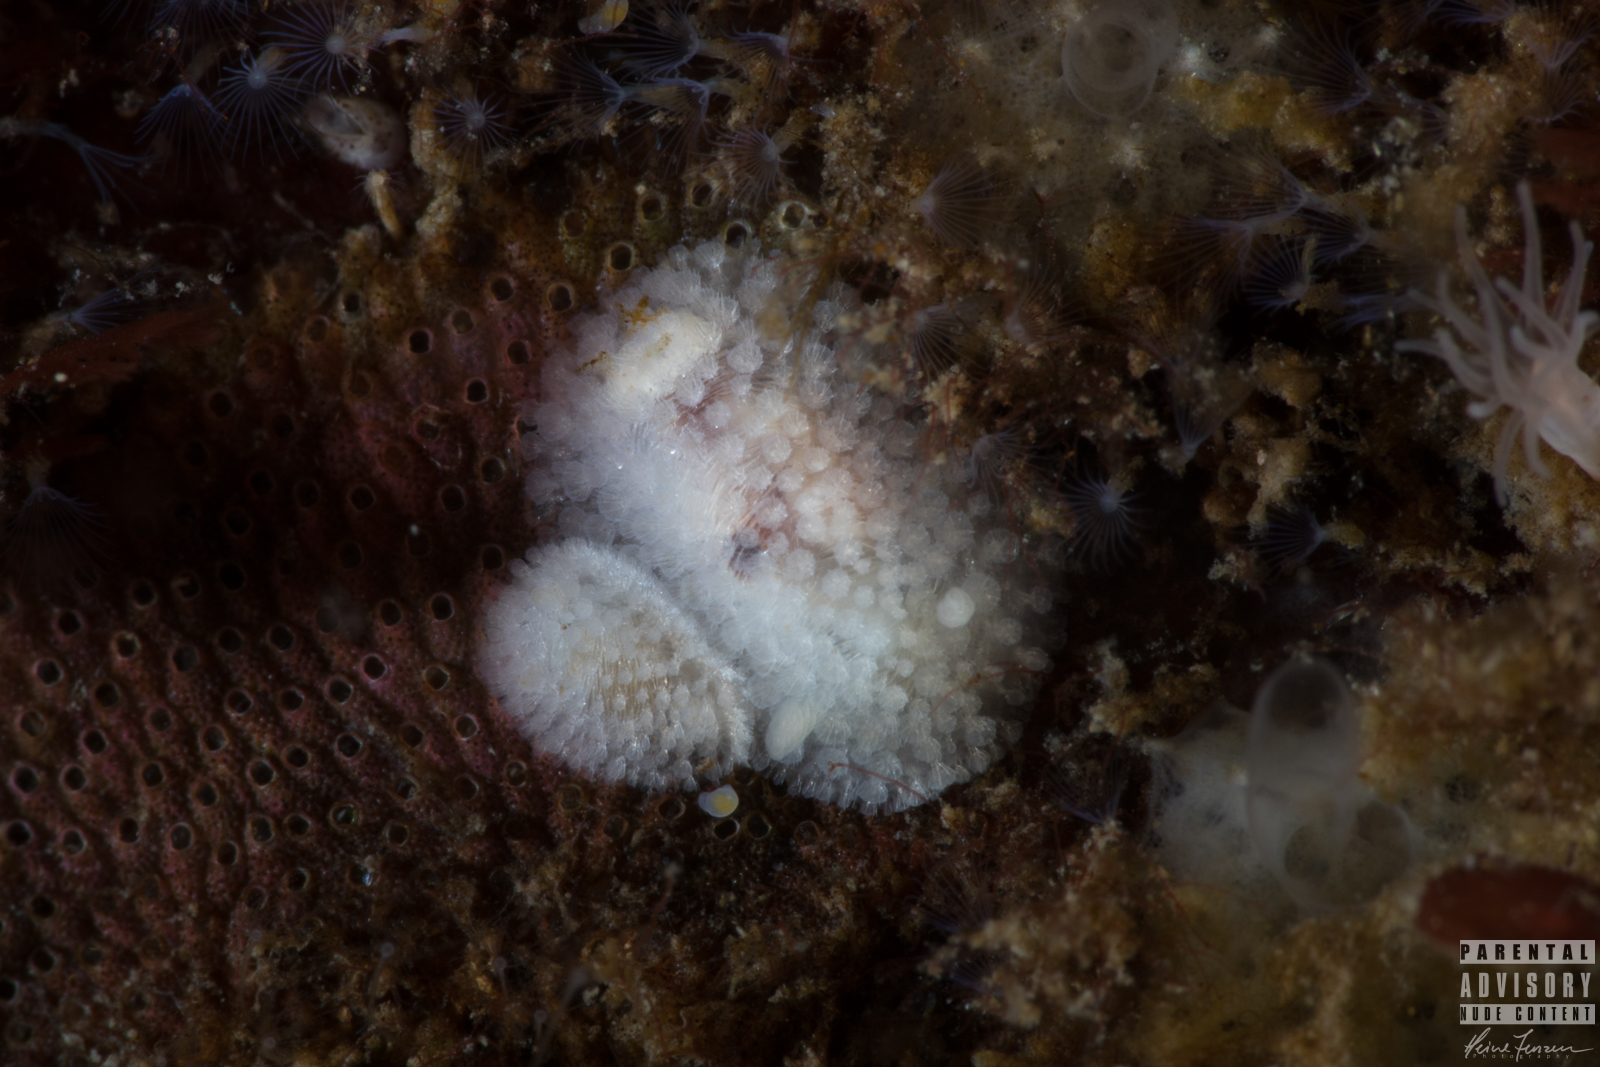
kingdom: Animalia
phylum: Mollusca
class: Gastropoda
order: Nudibranchia
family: Onchidorididae
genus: Onchidoris
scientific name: Onchidoris muricata
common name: Rough doris
